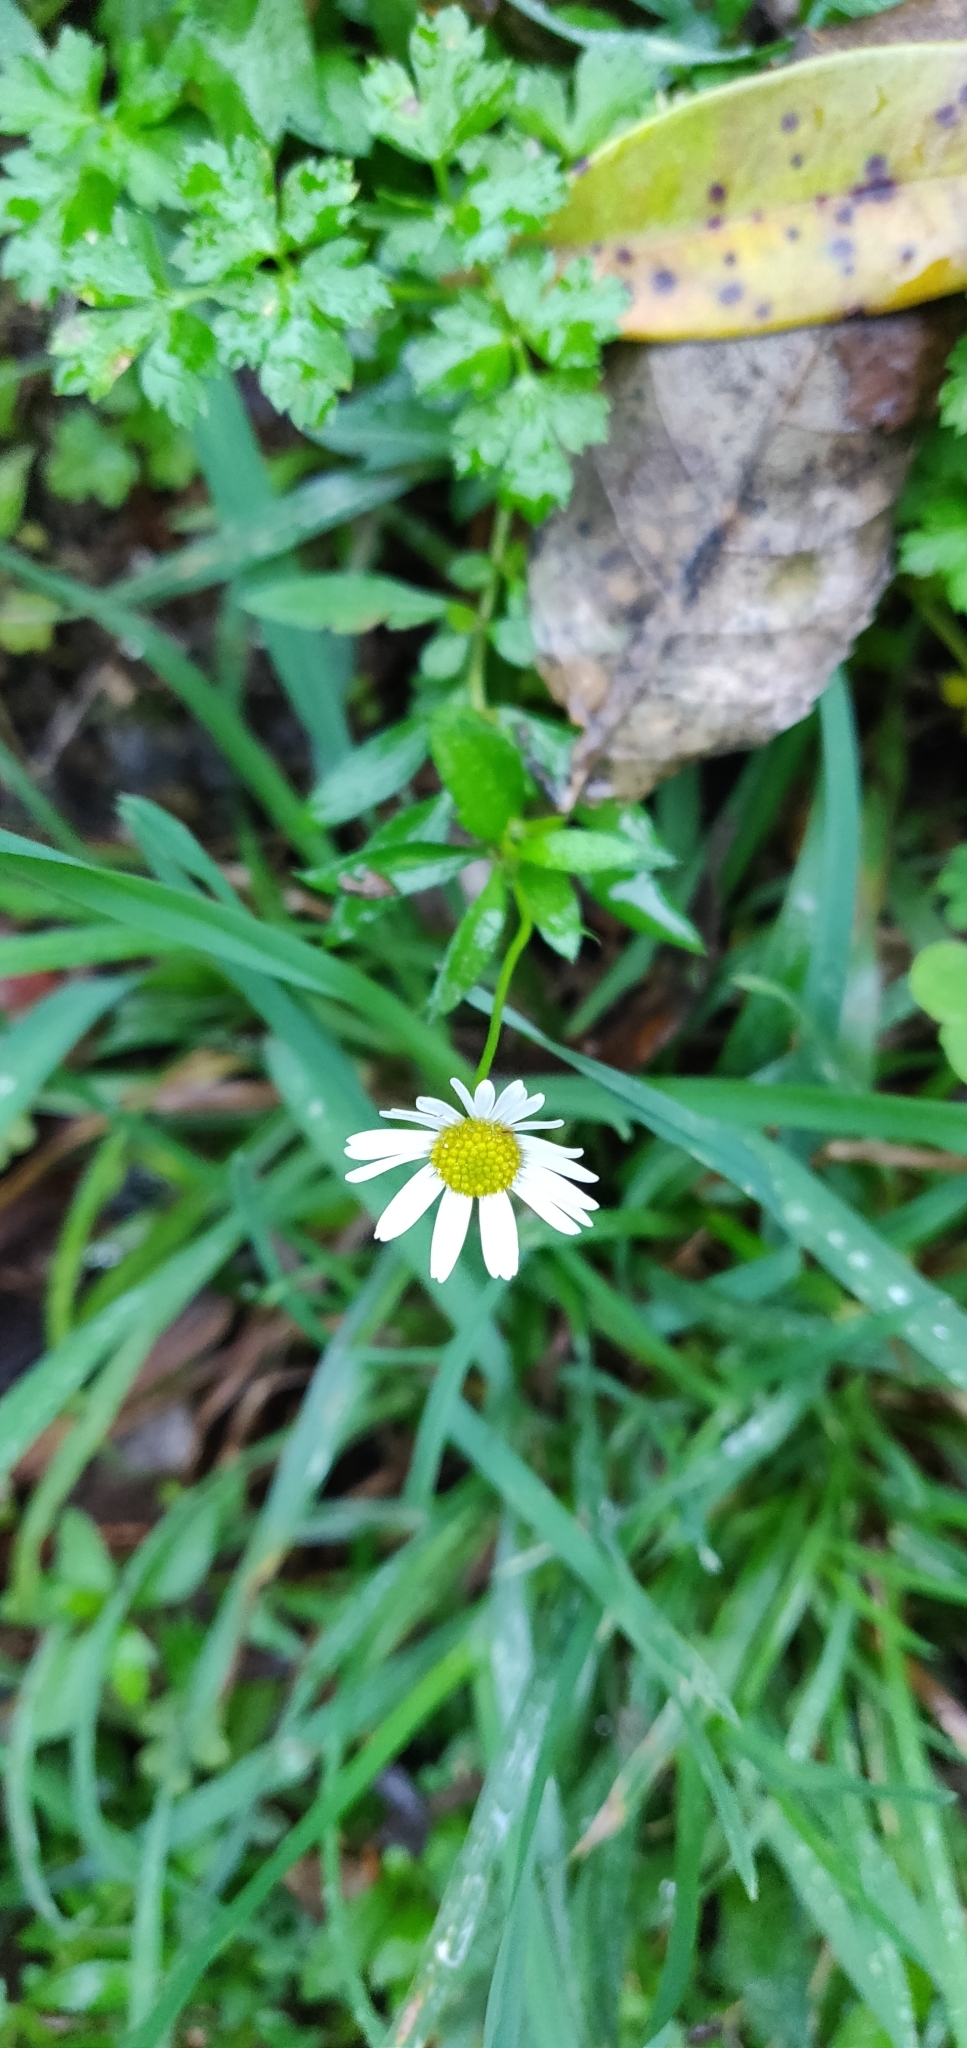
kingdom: Plantae
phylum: Tracheophyta
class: Magnoliopsida
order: Asterales
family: Asteraceae
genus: Erigeron
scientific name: Erigeron karvinskianus
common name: Mexican fleabane
